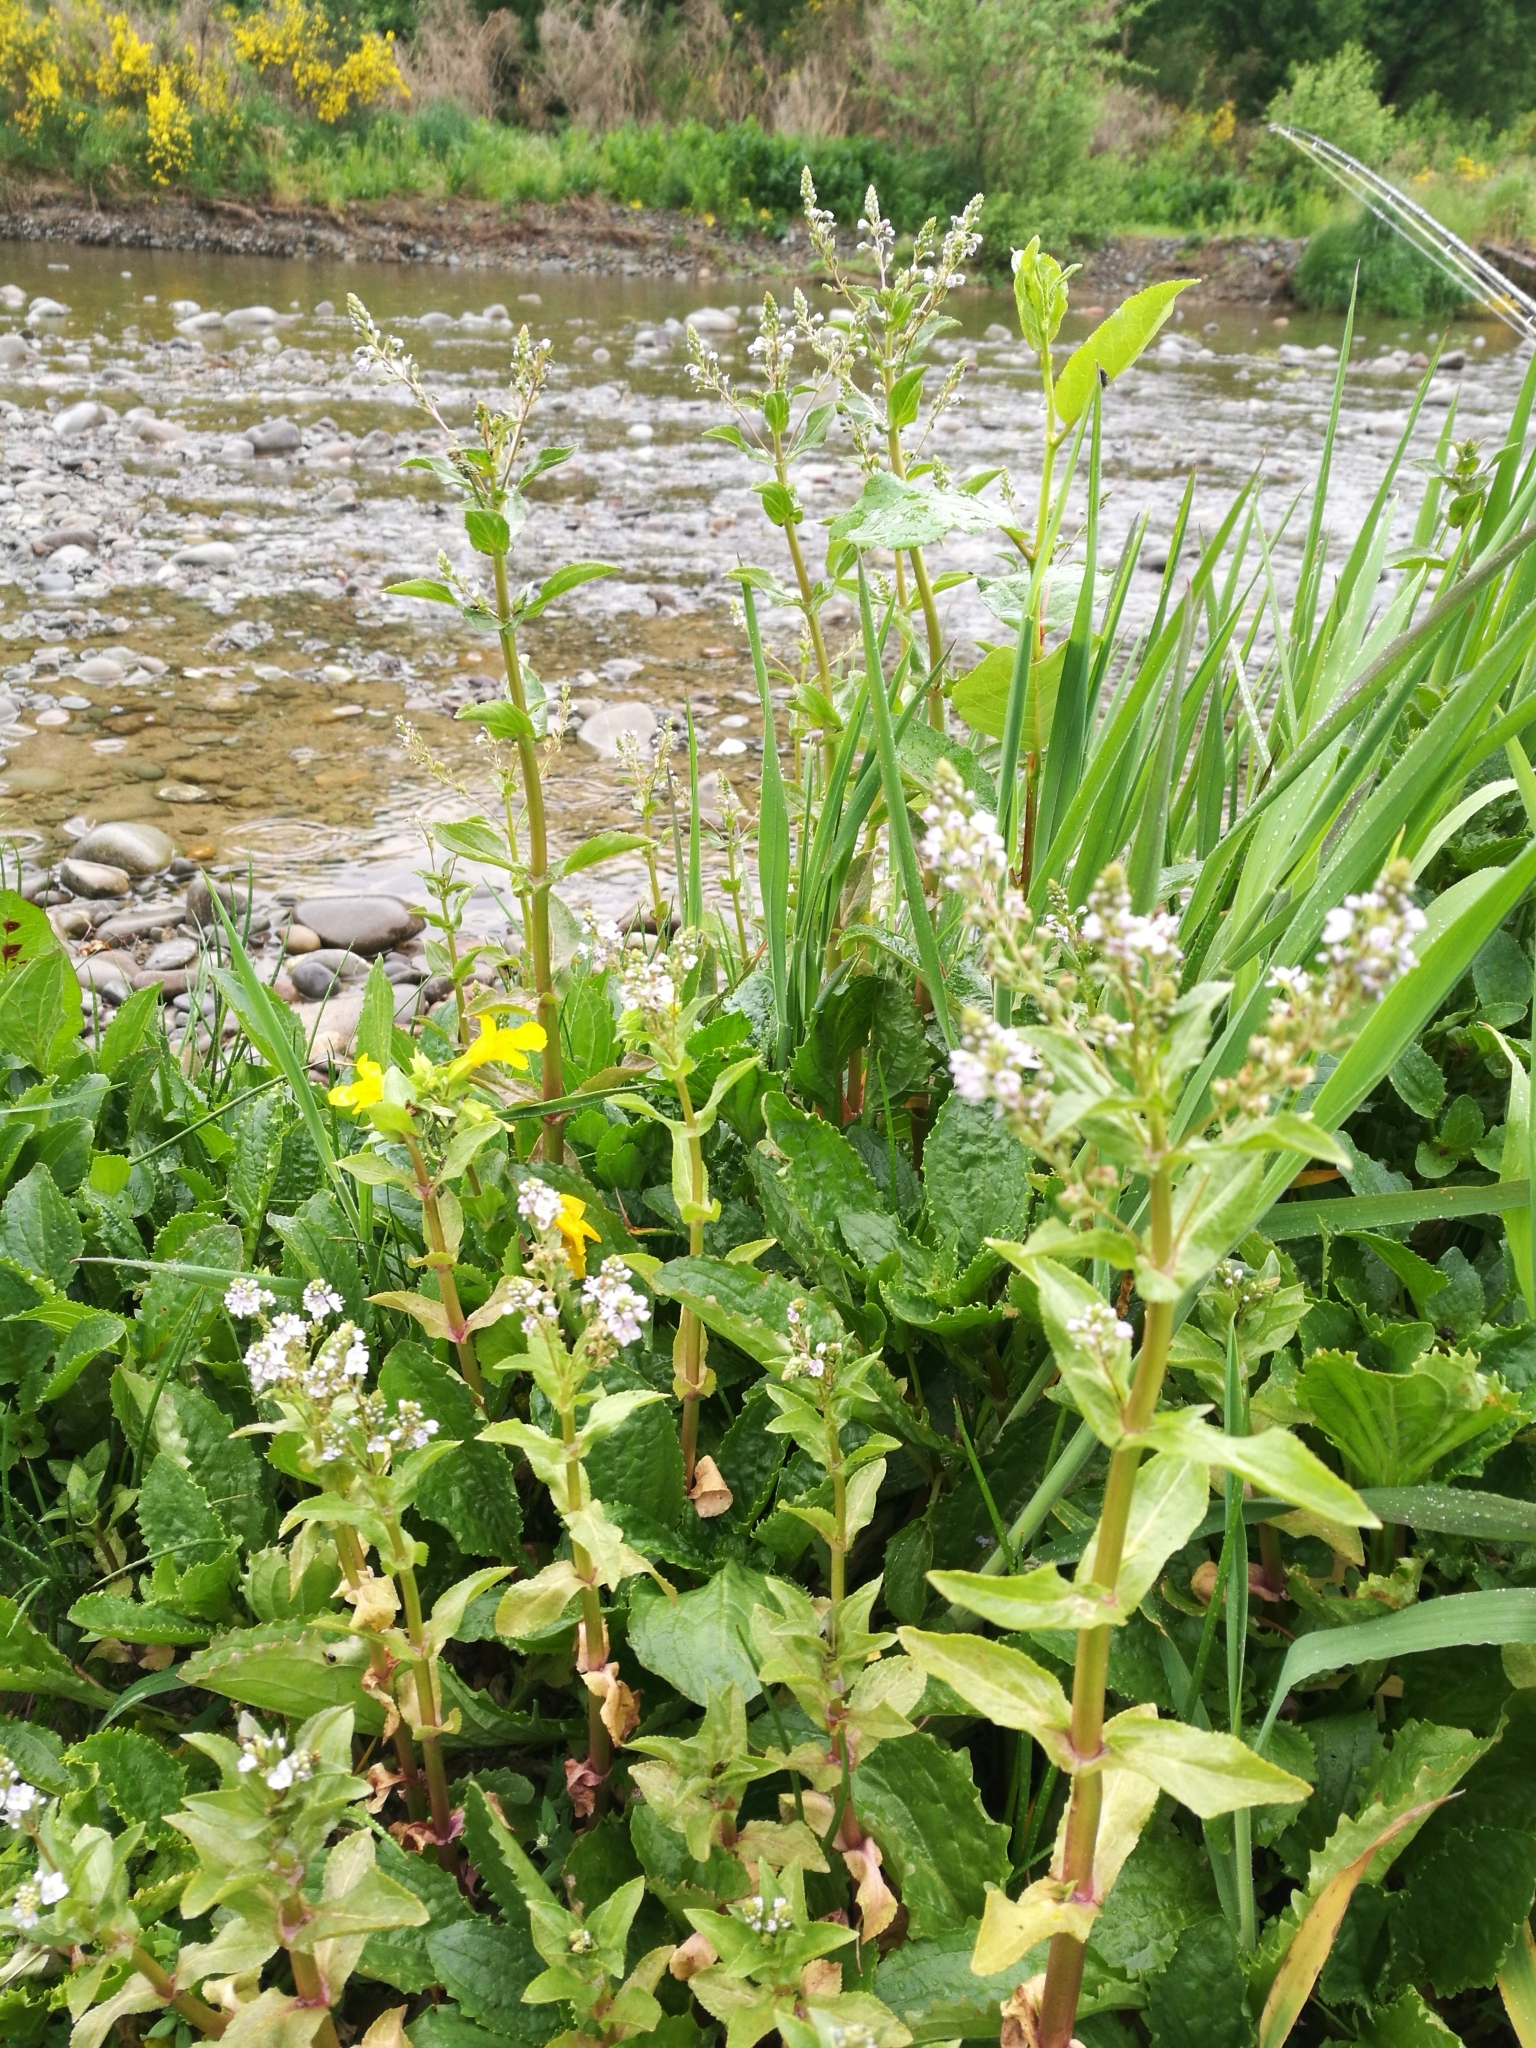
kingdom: Plantae
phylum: Tracheophyta
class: Magnoliopsida
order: Lamiales
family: Plantaginaceae
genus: Veronica
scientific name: Veronica anagallis-aquatica
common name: Water speedwell
